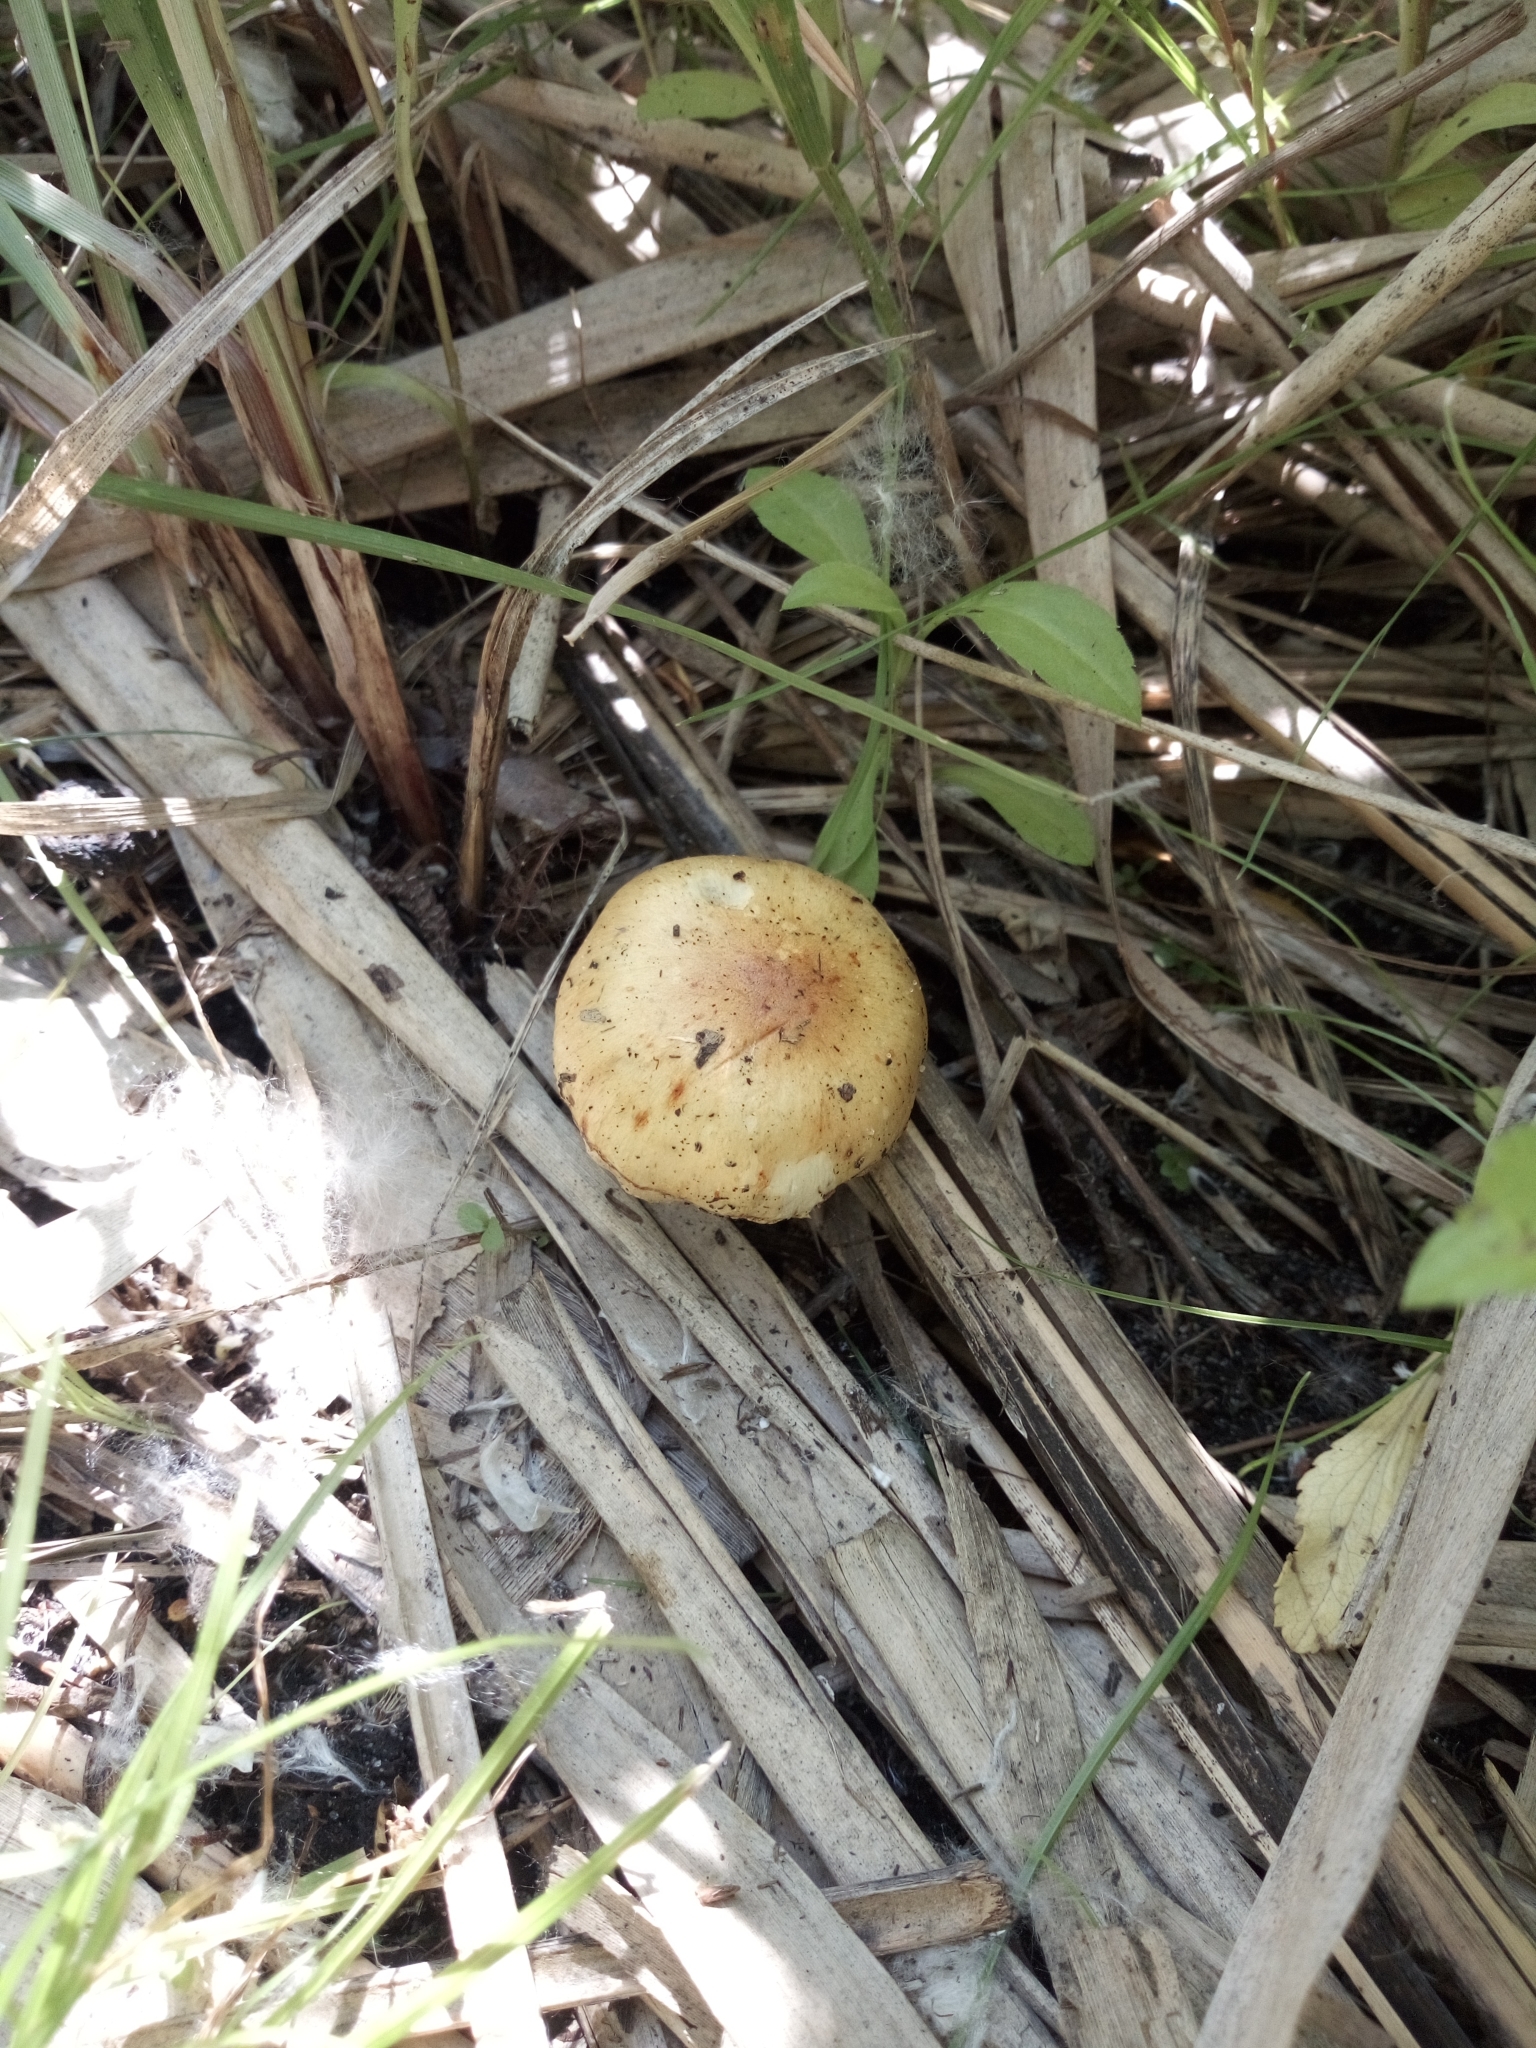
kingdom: Fungi
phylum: Basidiomycota
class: Agaricomycetes
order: Agaricales
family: Bolbitiaceae
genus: Bolbitius
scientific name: Bolbitius titubans
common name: Yellow fieldcap
